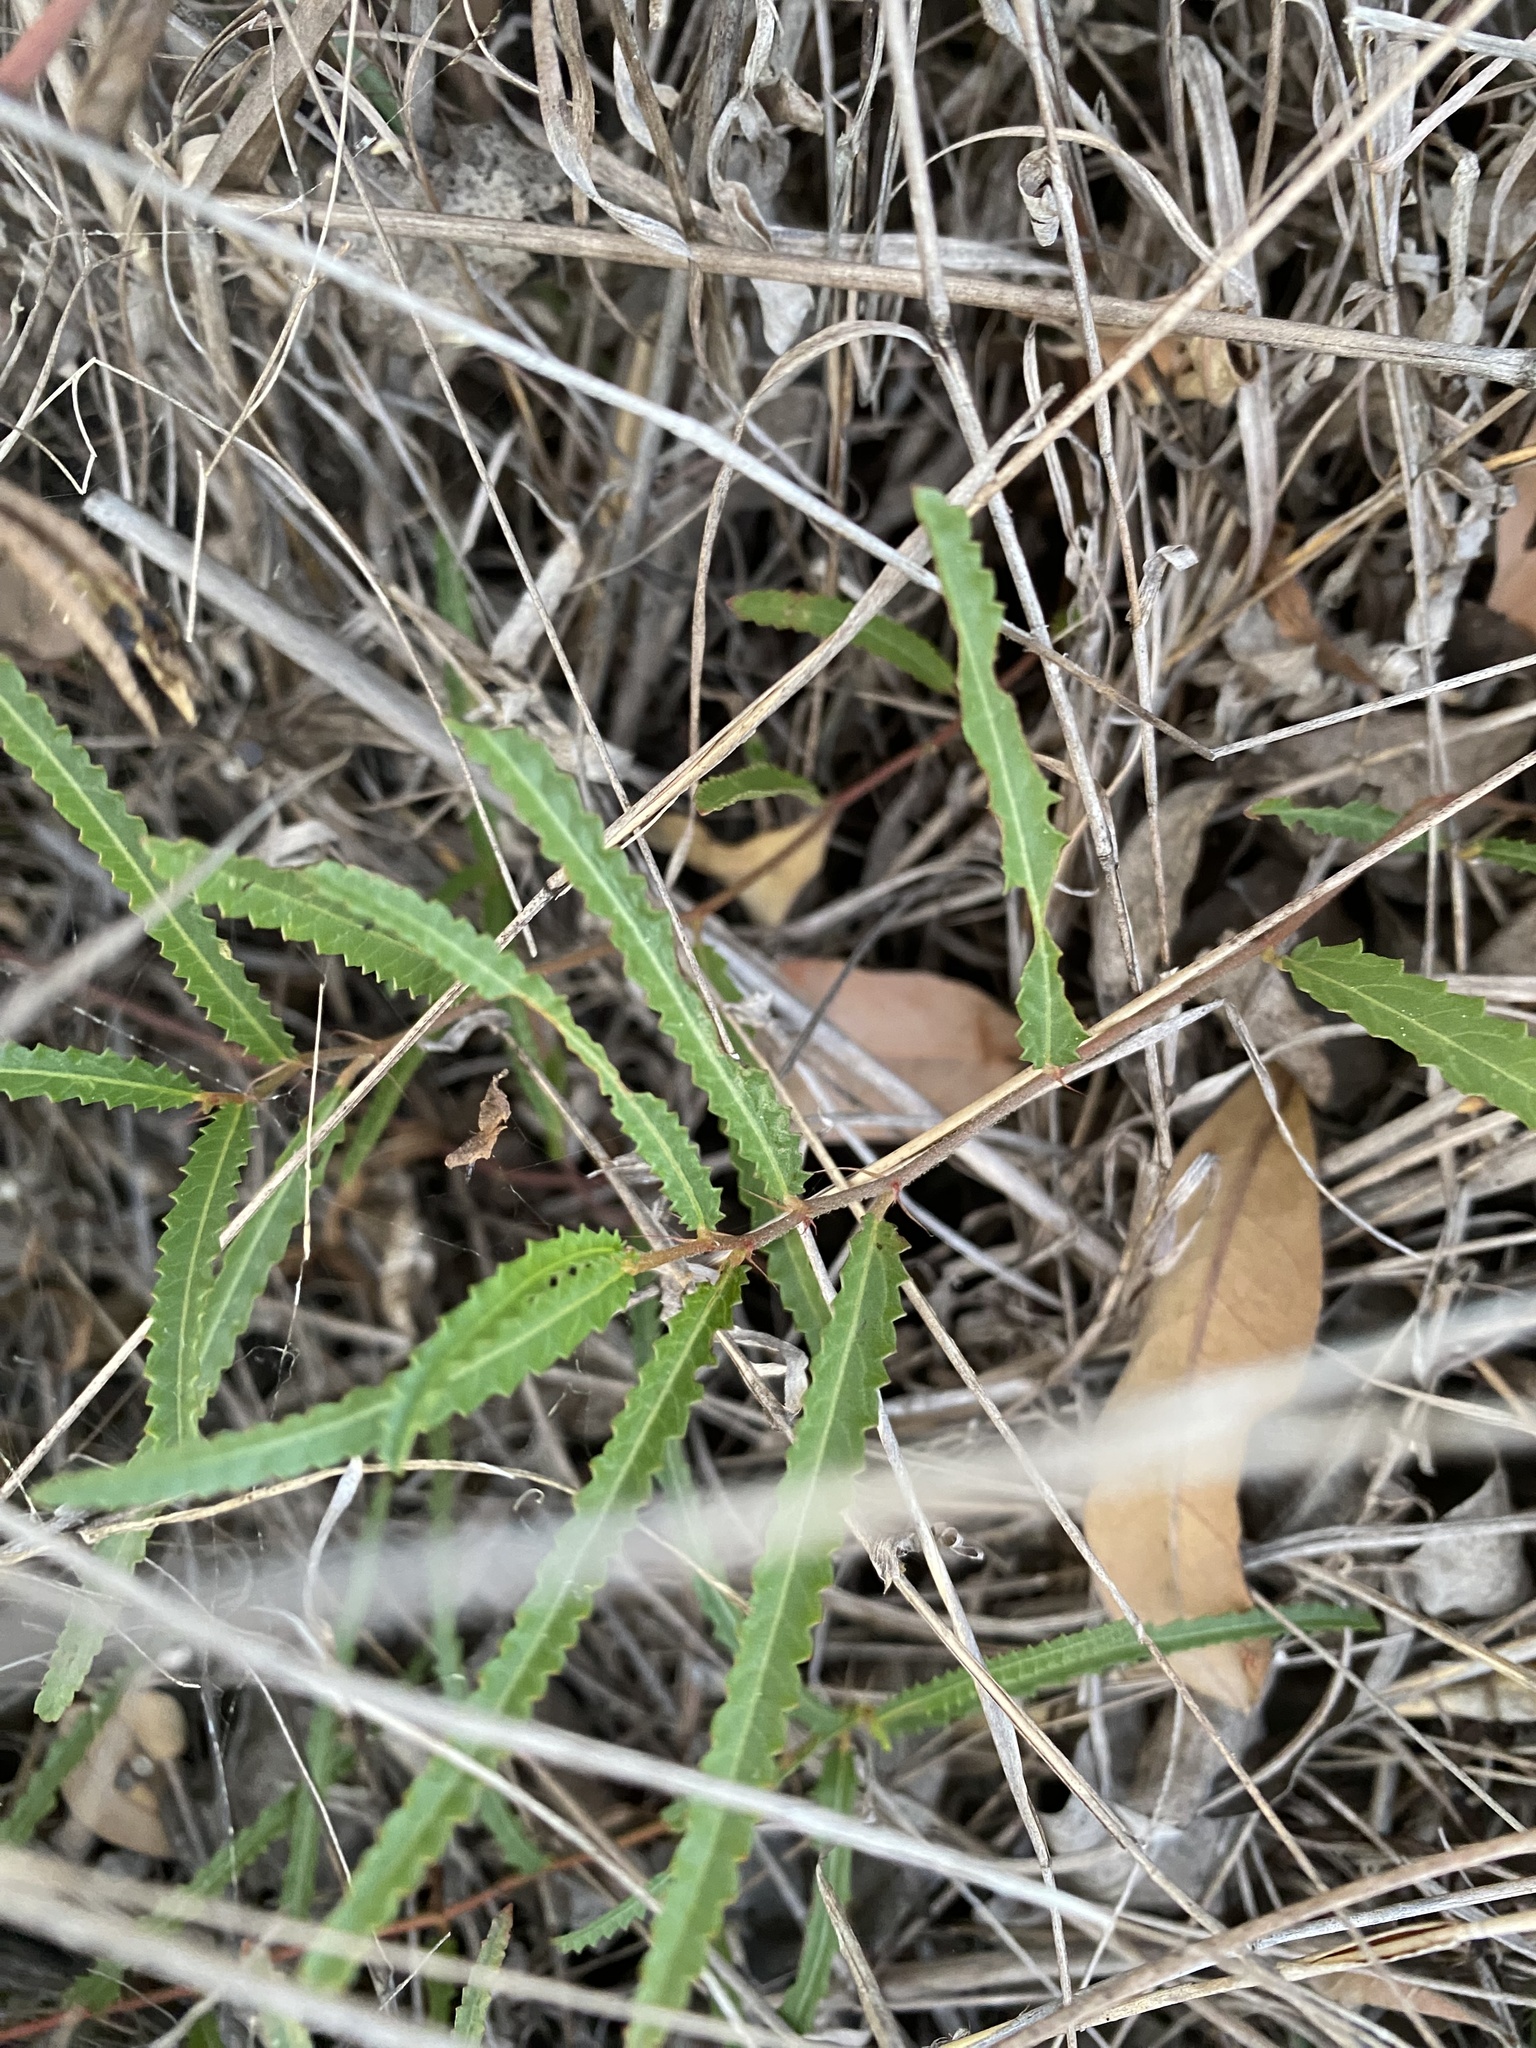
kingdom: Plantae
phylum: Tracheophyta
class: Magnoliopsida
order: Malvales
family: Malvaceae
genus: Corchorus
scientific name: Corchorus asplenifolius
